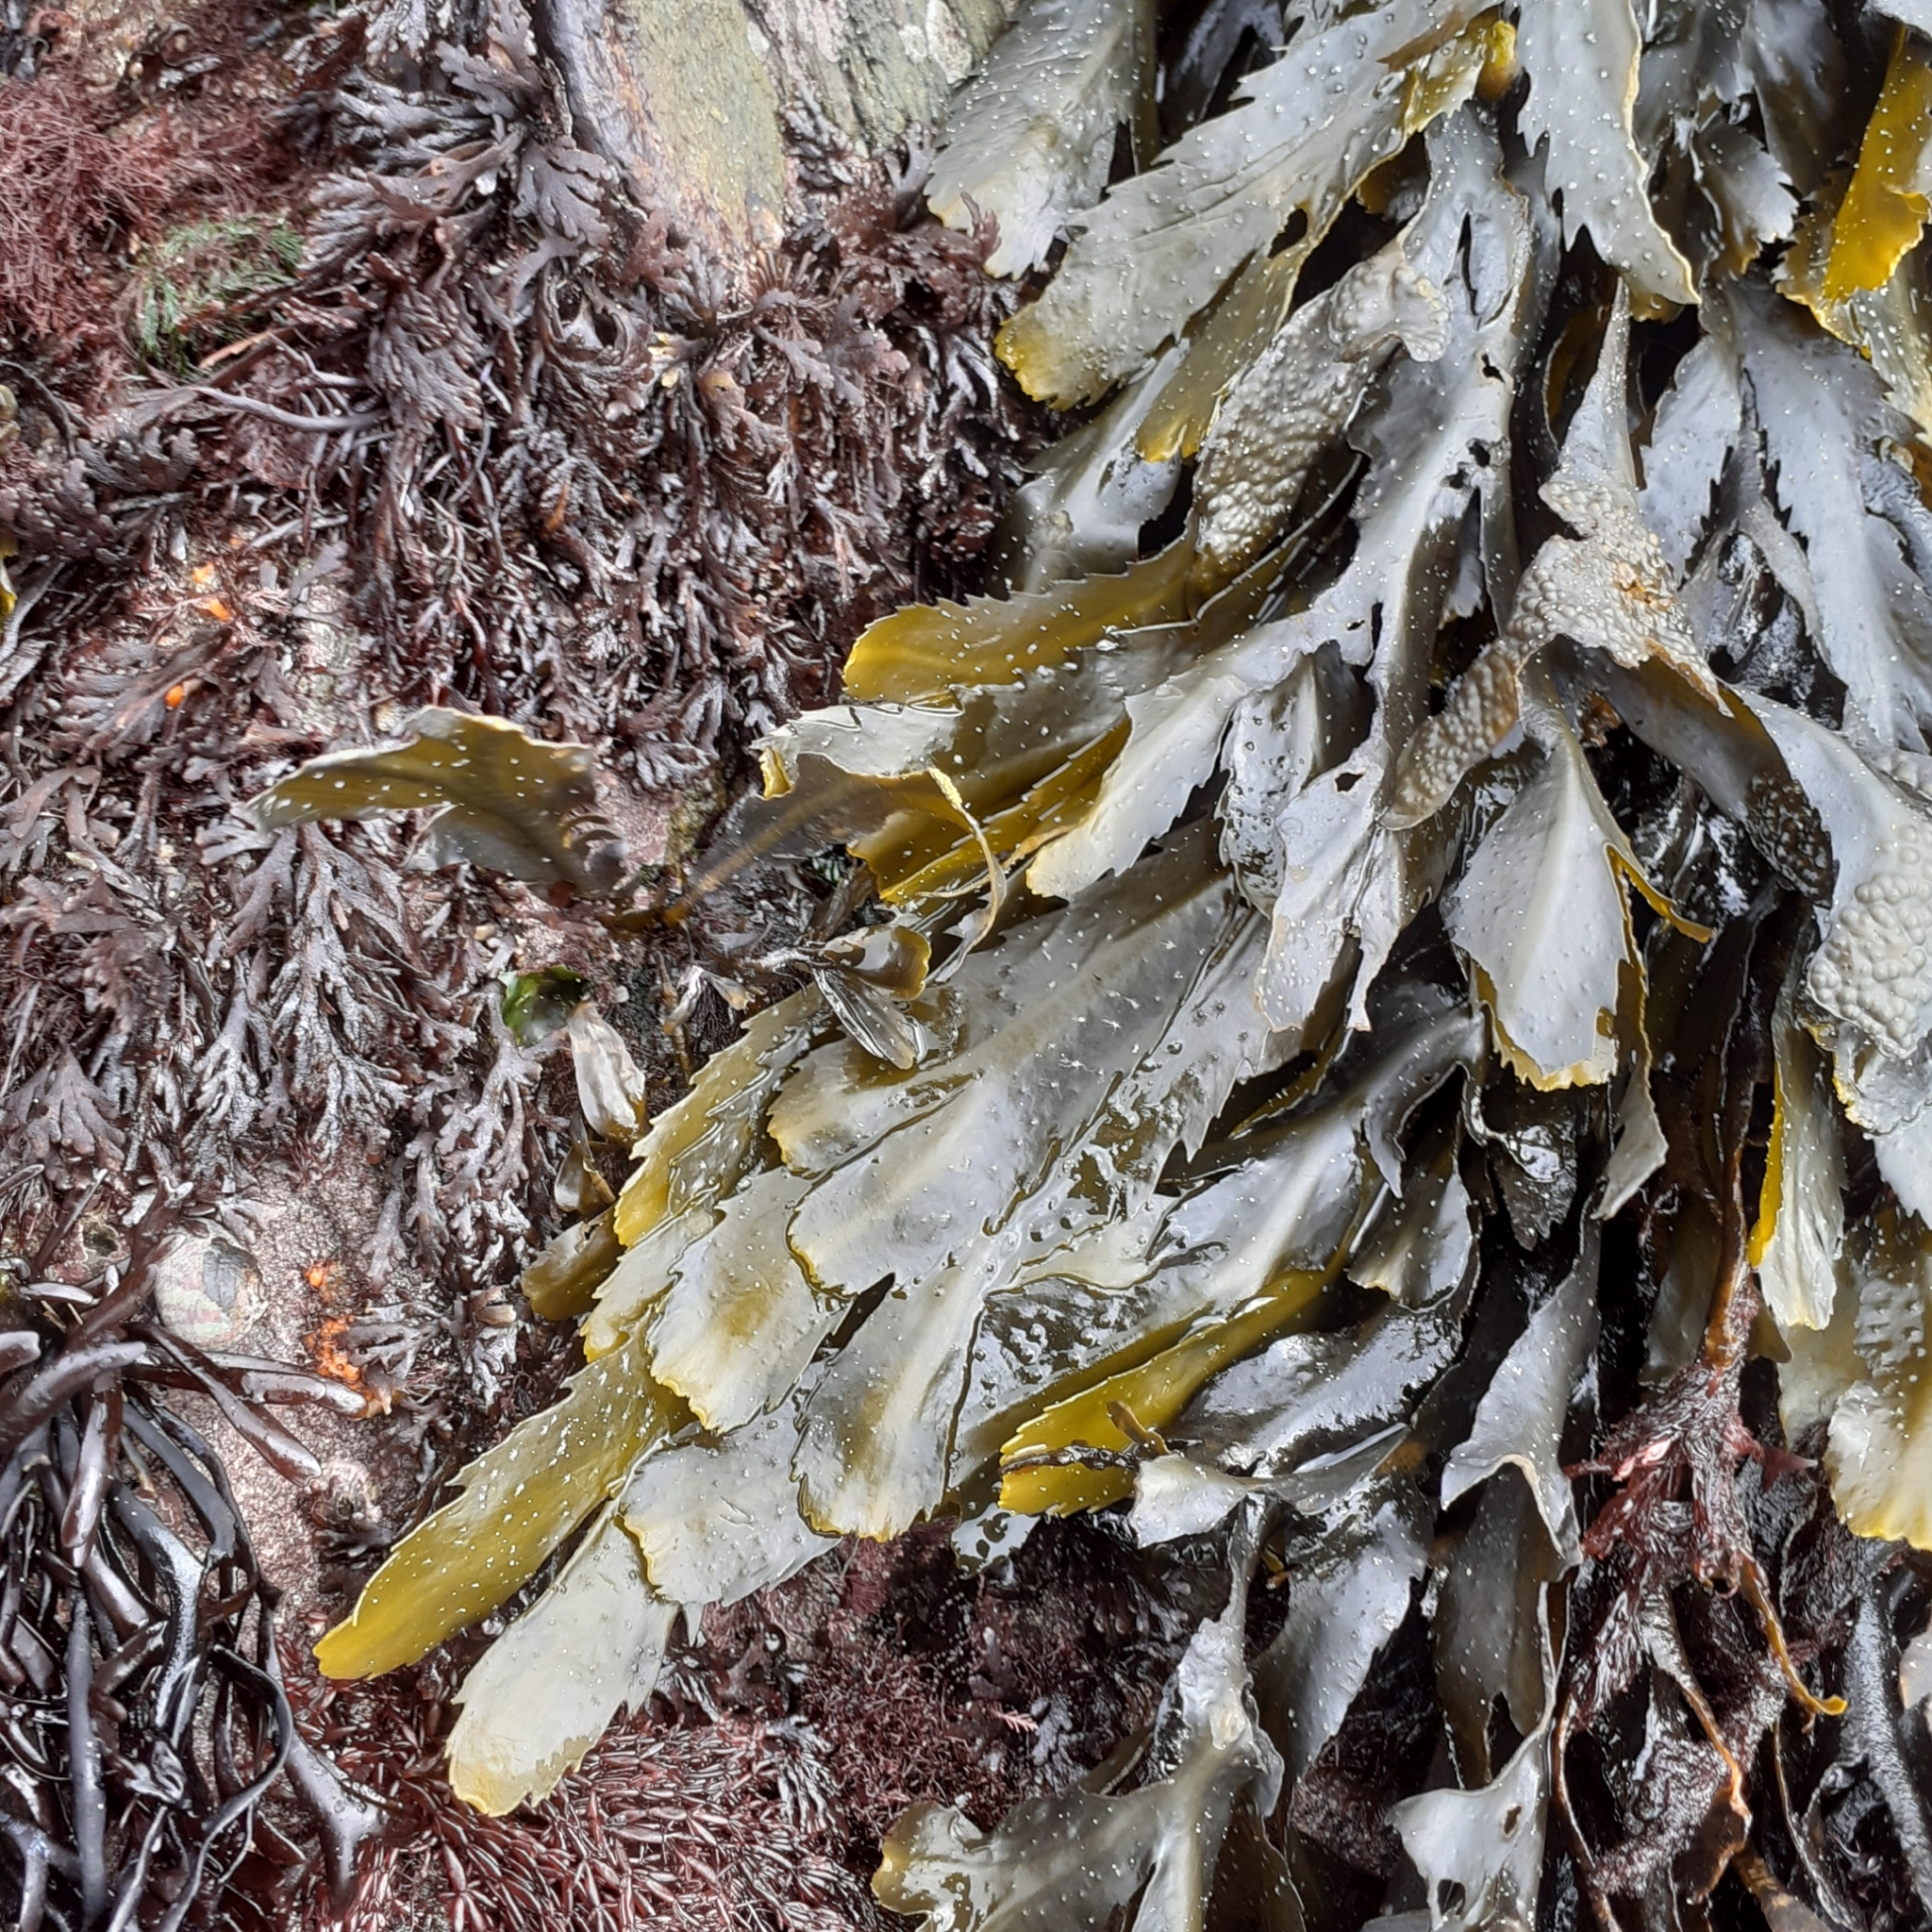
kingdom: Chromista
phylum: Ochrophyta
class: Phaeophyceae
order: Fucales
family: Fucaceae
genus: Fucus
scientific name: Fucus serratus
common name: Toothed wrack
